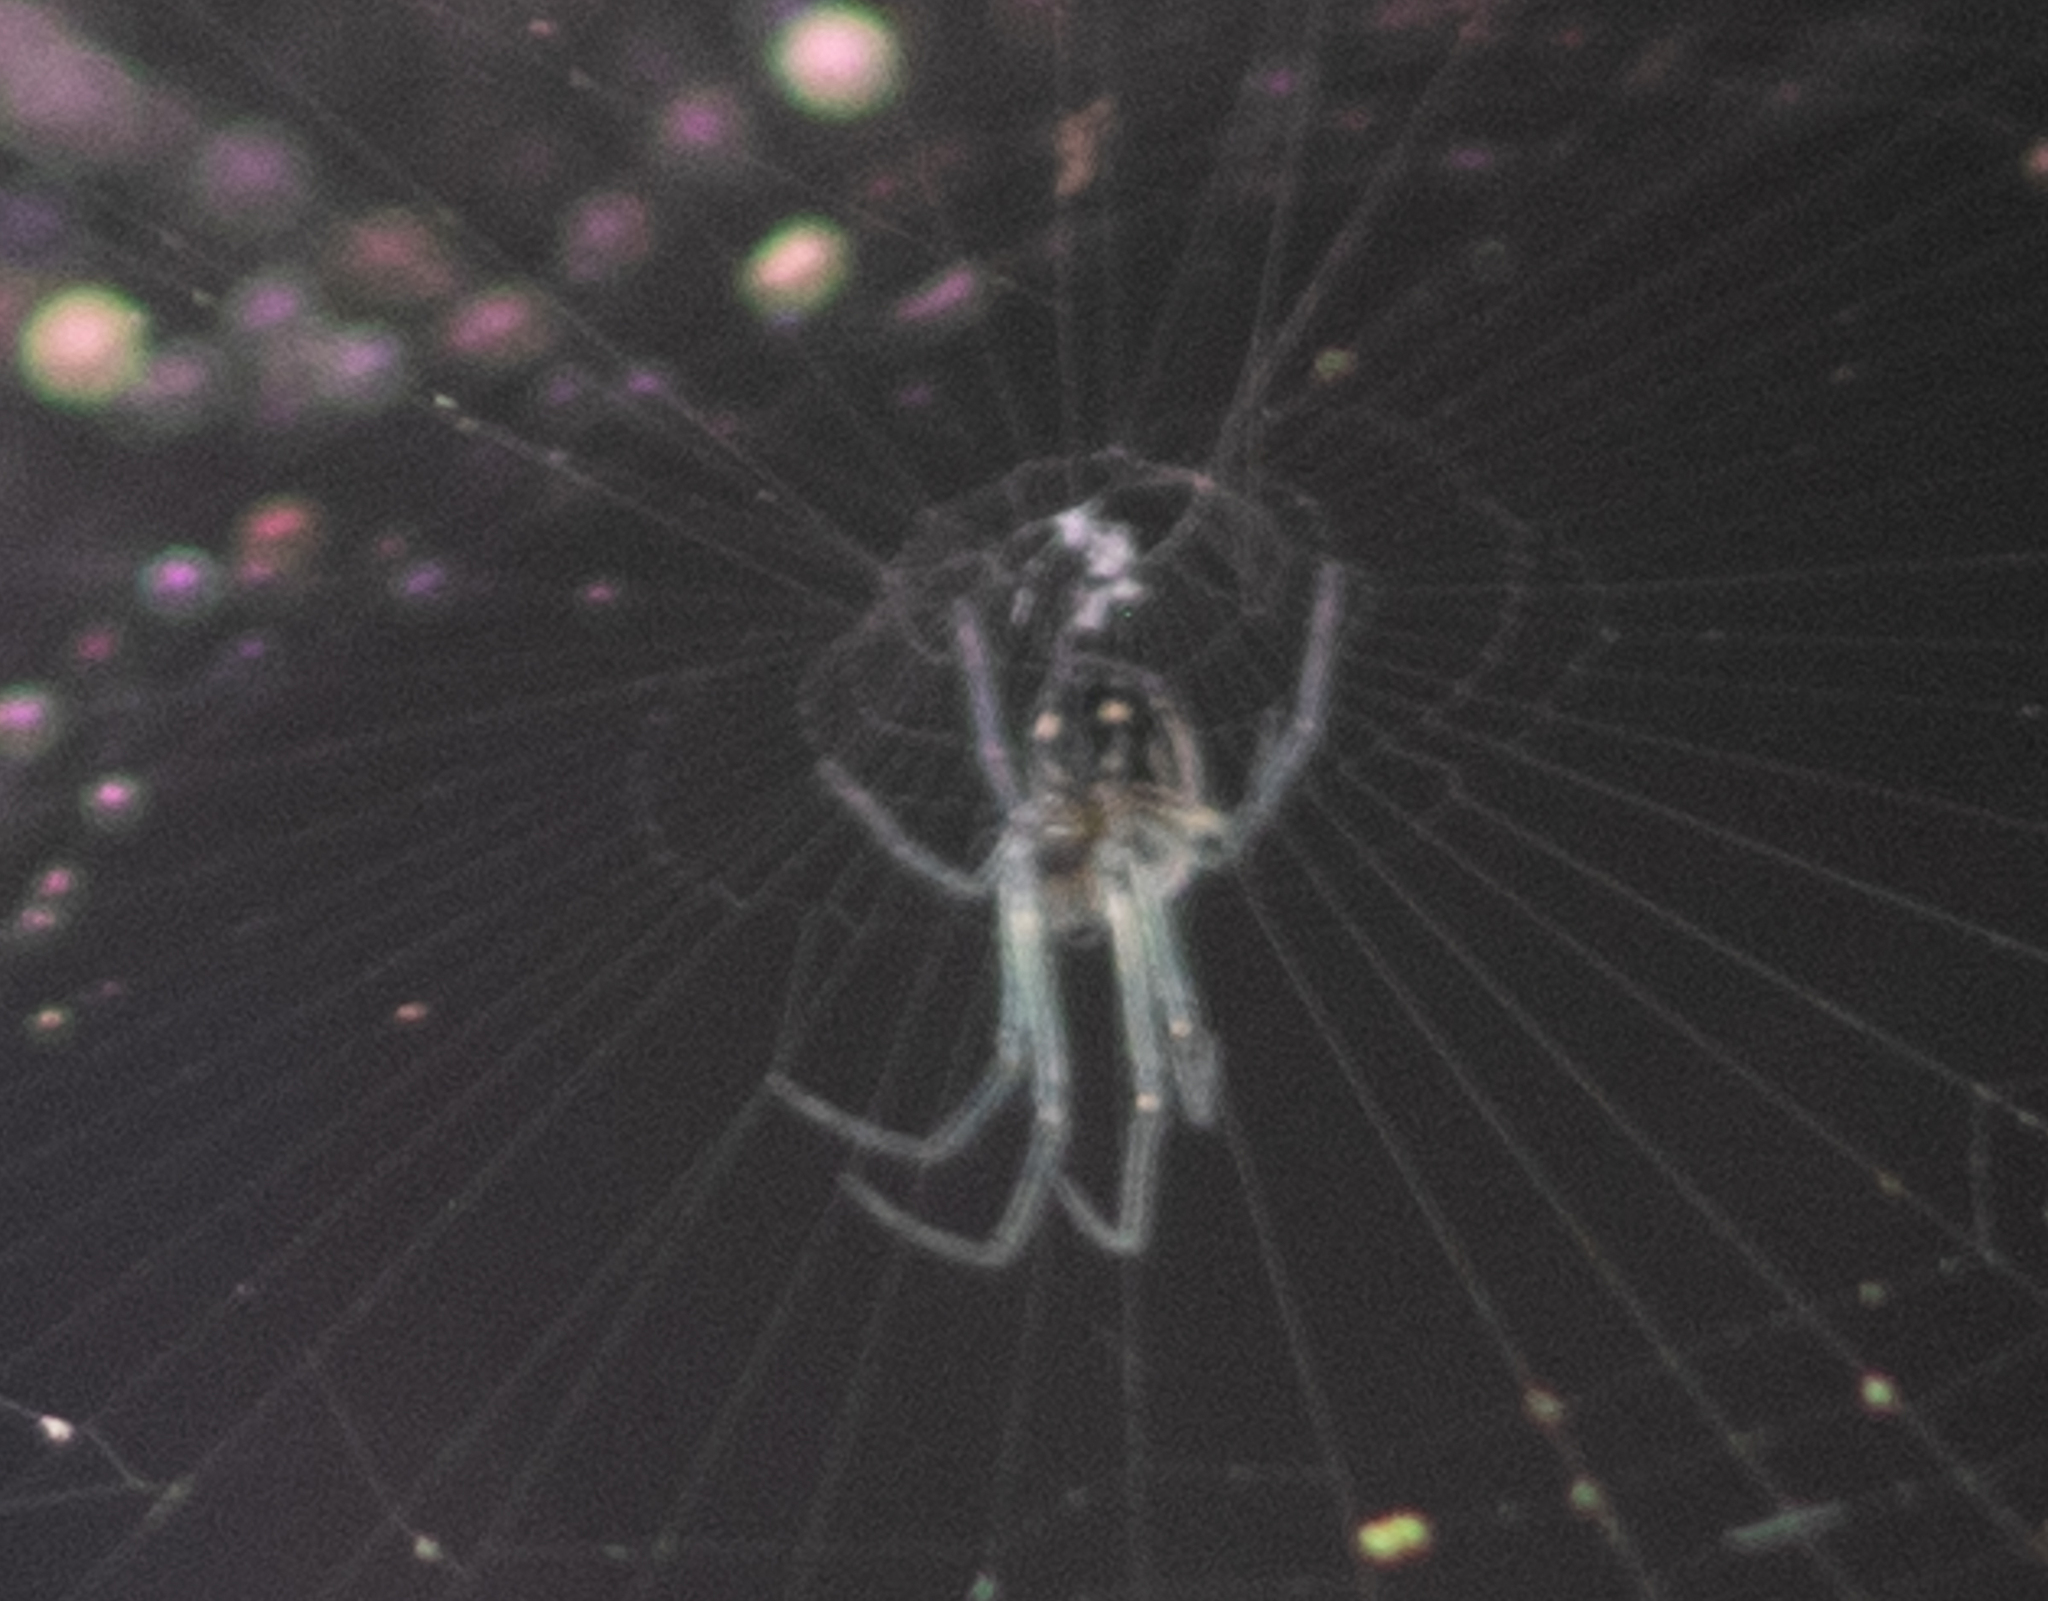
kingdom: Animalia
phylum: Arthropoda
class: Arachnida
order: Araneae
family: Tetragnathidae
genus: Leucauge
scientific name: Leucauge argyra
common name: Longjawed orb weavers
